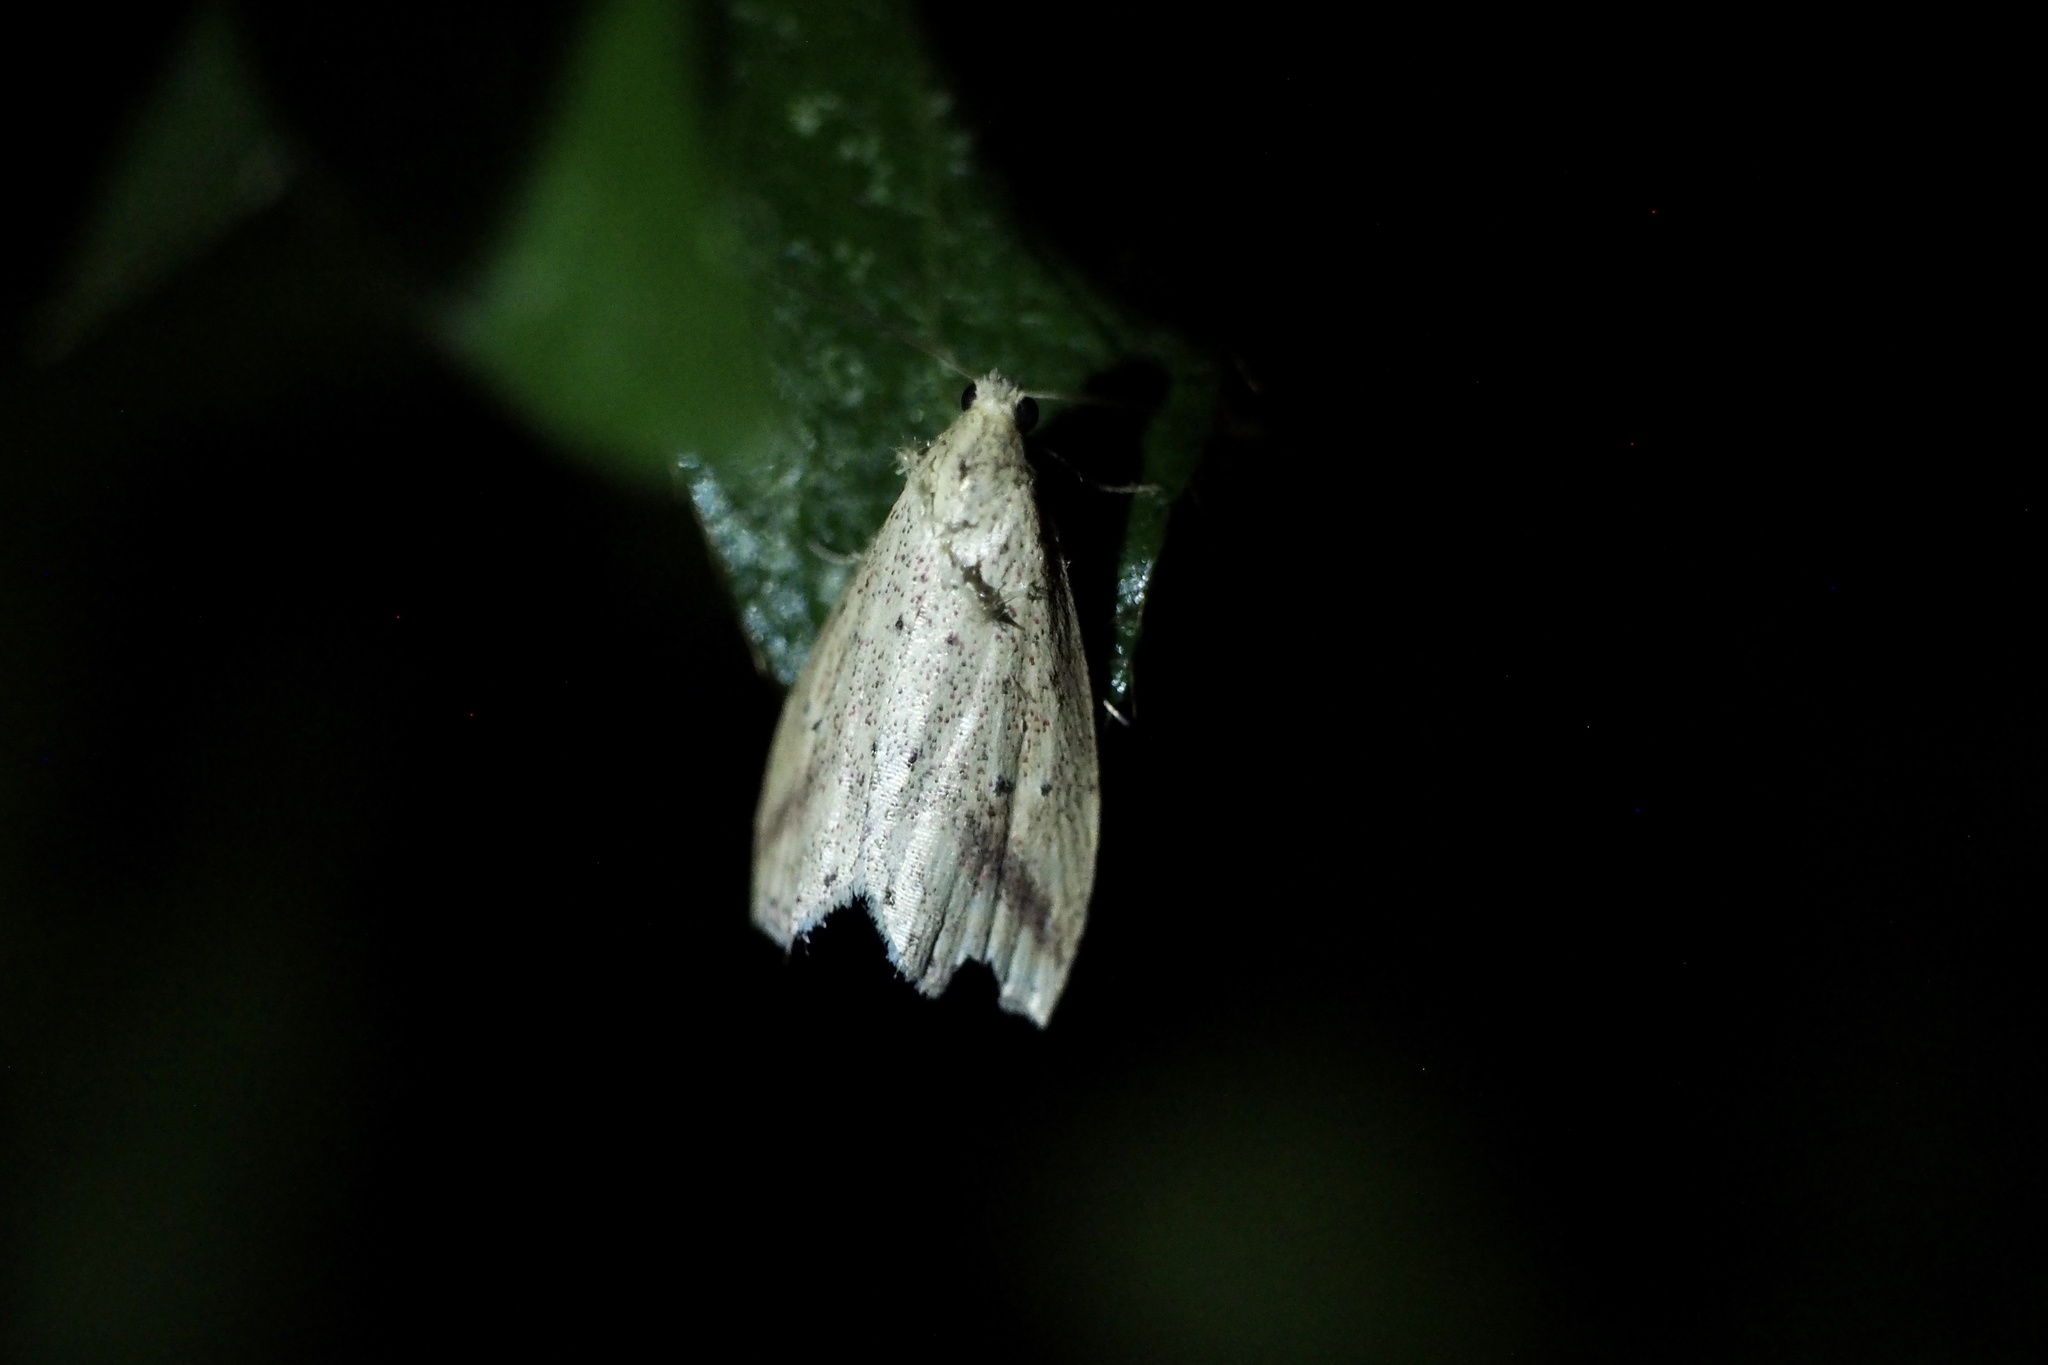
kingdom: Animalia
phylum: Arthropoda
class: Insecta
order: Lepidoptera
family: Erebidae
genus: Hypenomorpha
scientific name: Hypenomorpha
